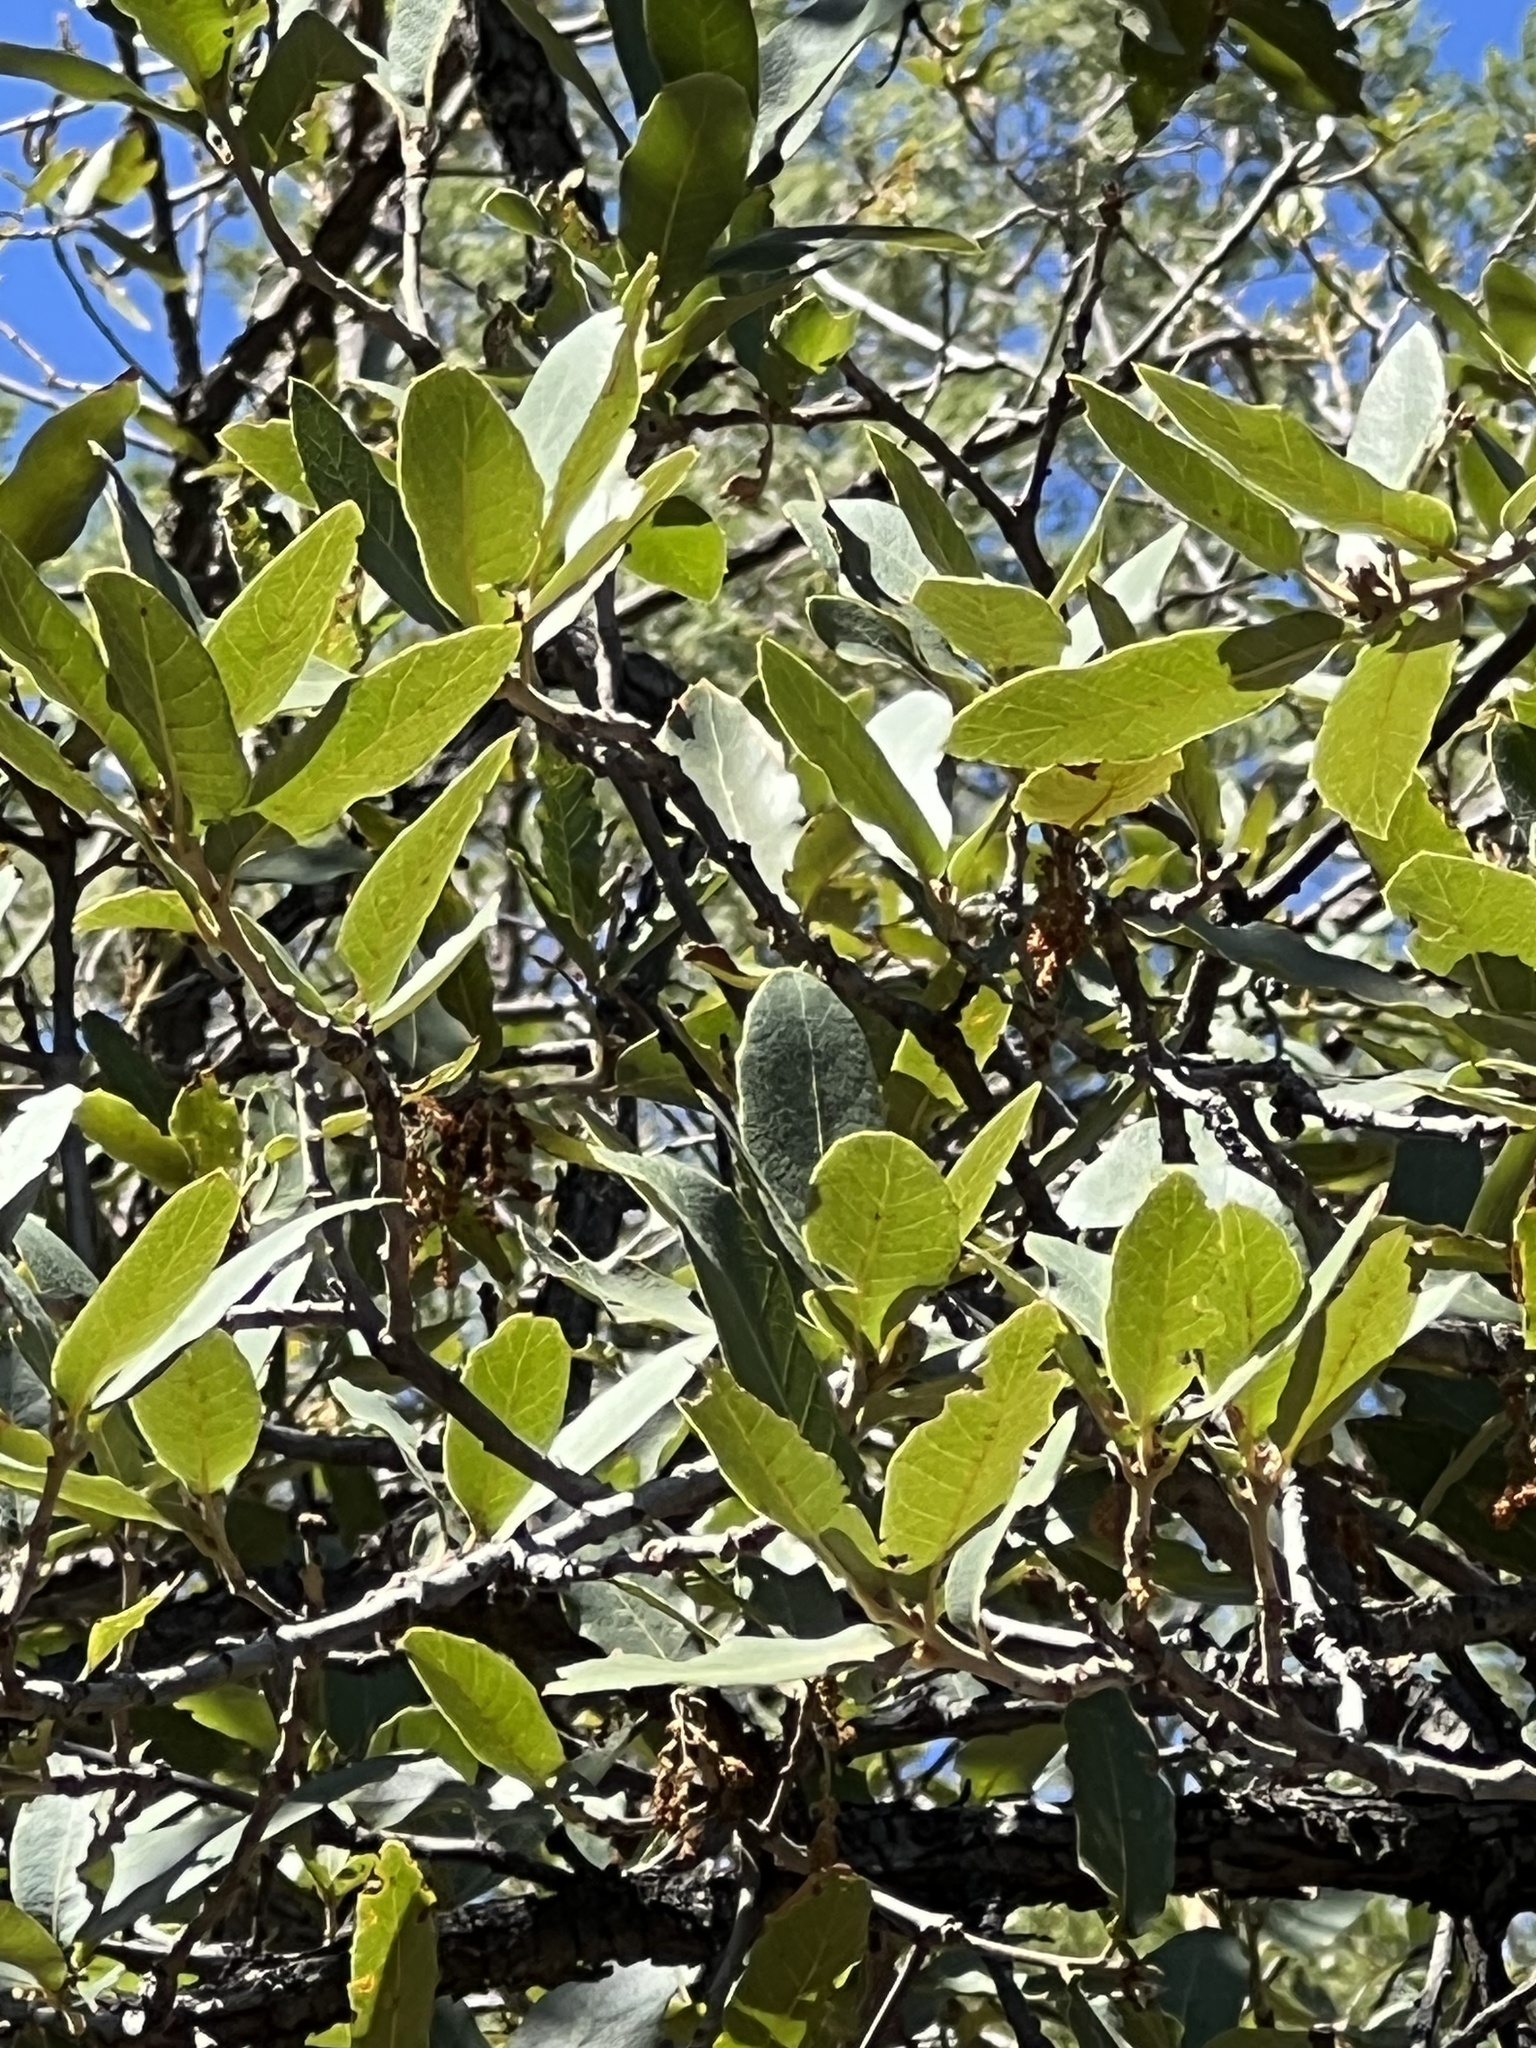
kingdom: Plantae
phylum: Tracheophyta
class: Magnoliopsida
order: Fagales
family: Fagaceae
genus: Quercus
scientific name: Quercus arizonica
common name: Arizona white oak
